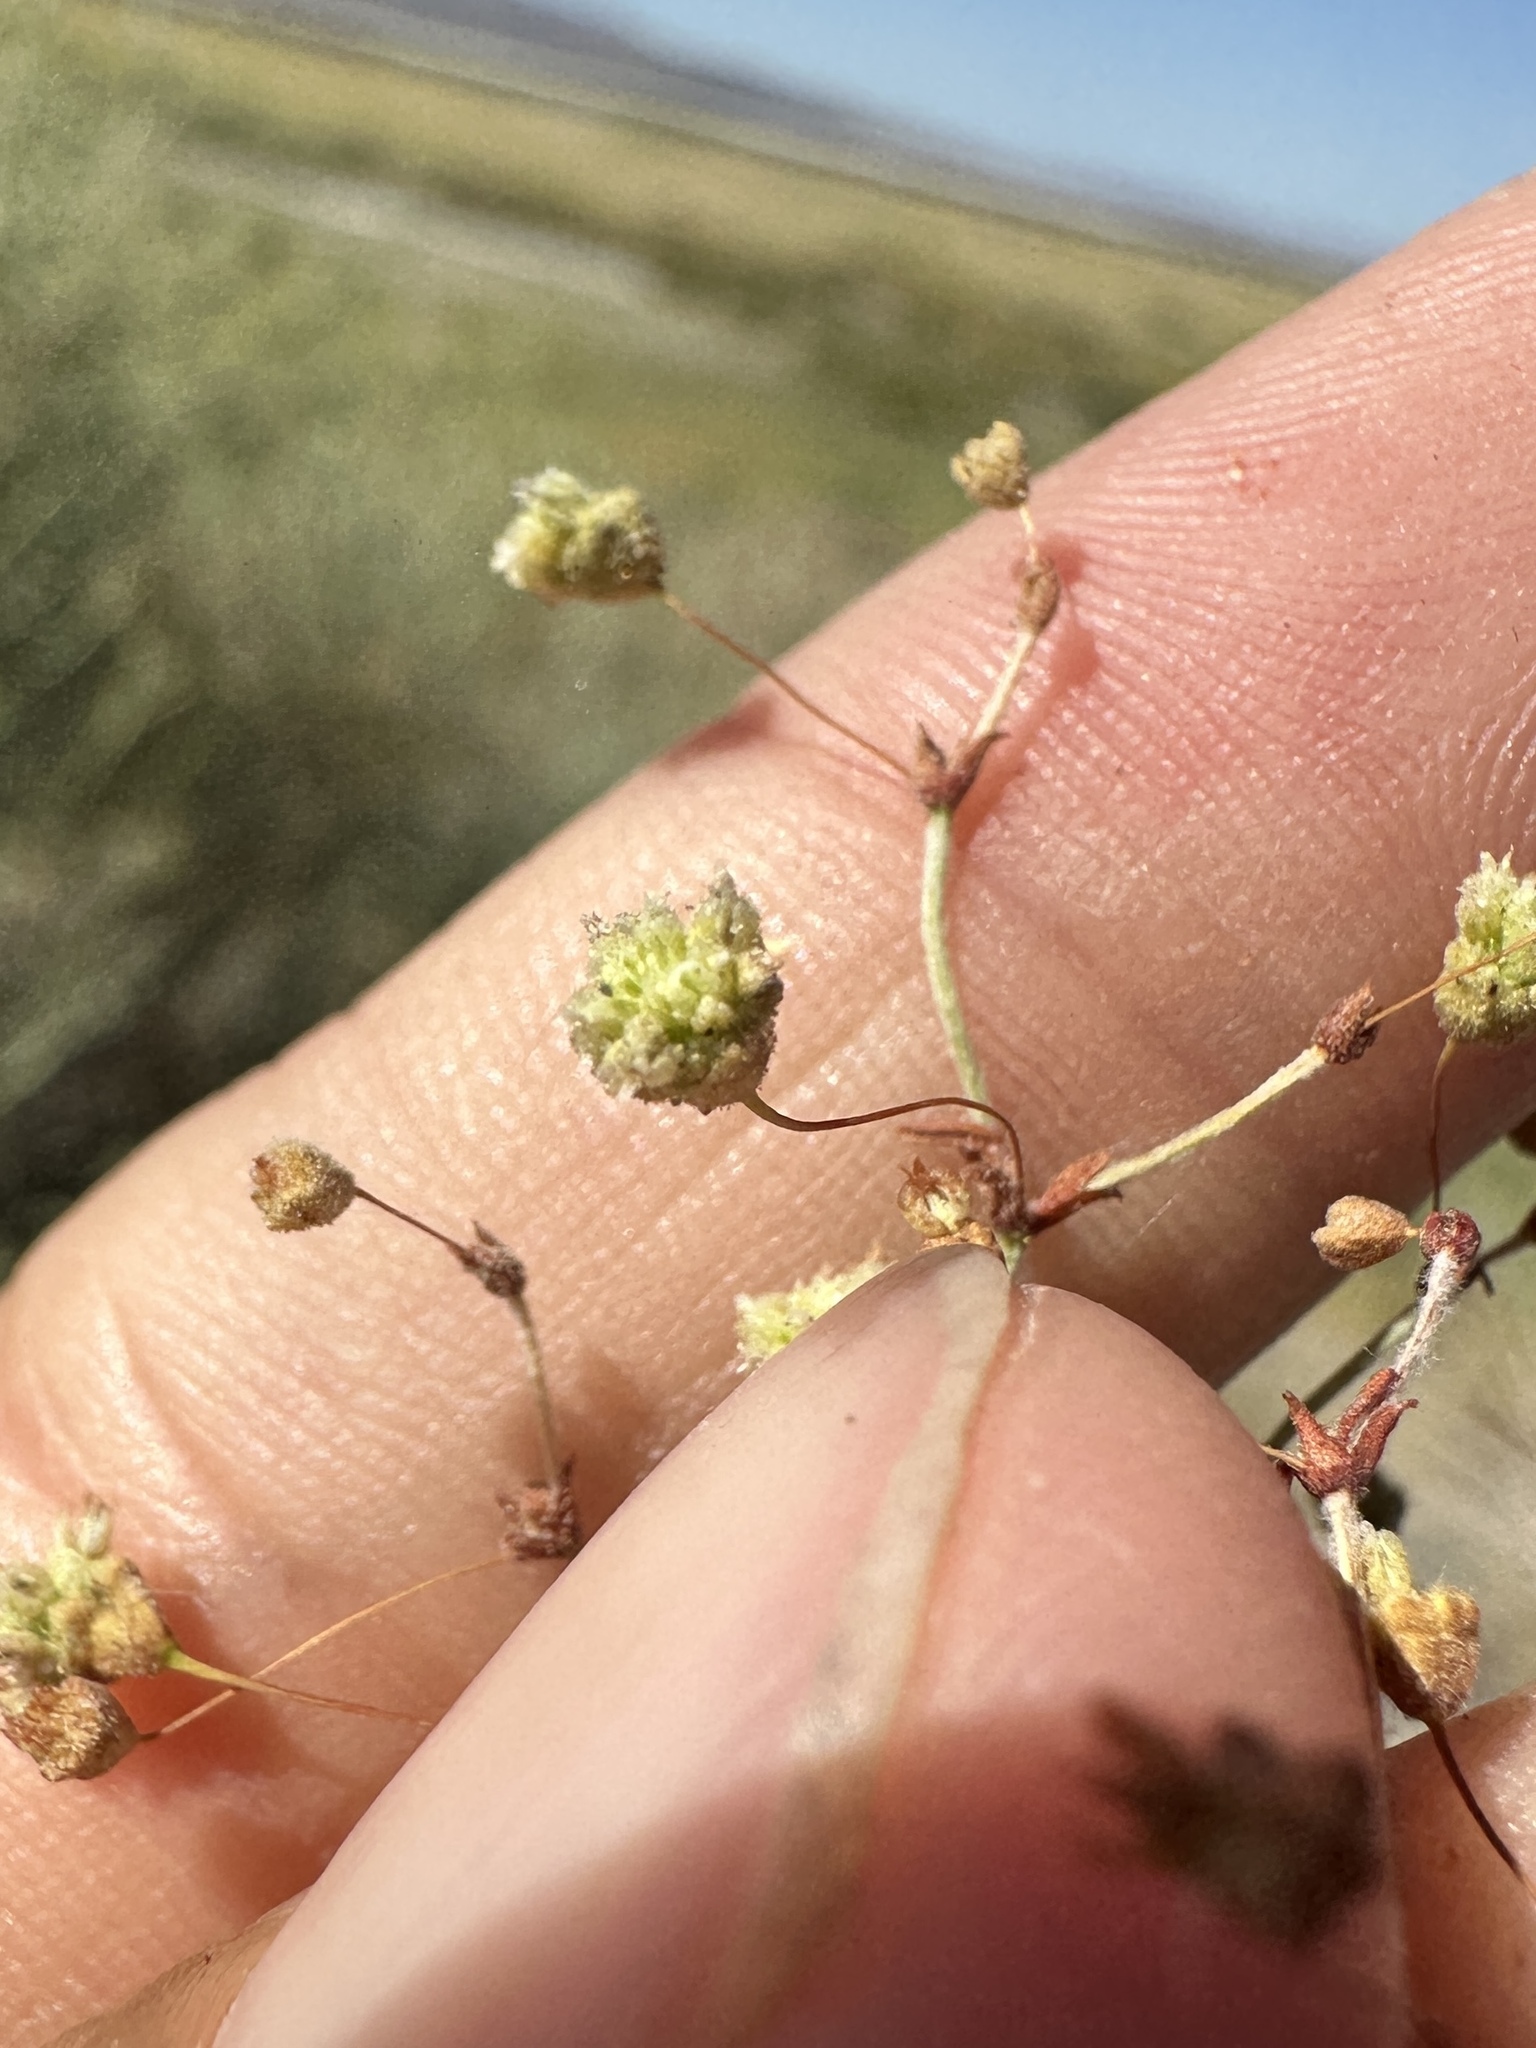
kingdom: Plantae
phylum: Tracheophyta
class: Magnoliopsida
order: Caryophyllales
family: Polygonaceae
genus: Eriogonum
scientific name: Eriogonum maculatum
